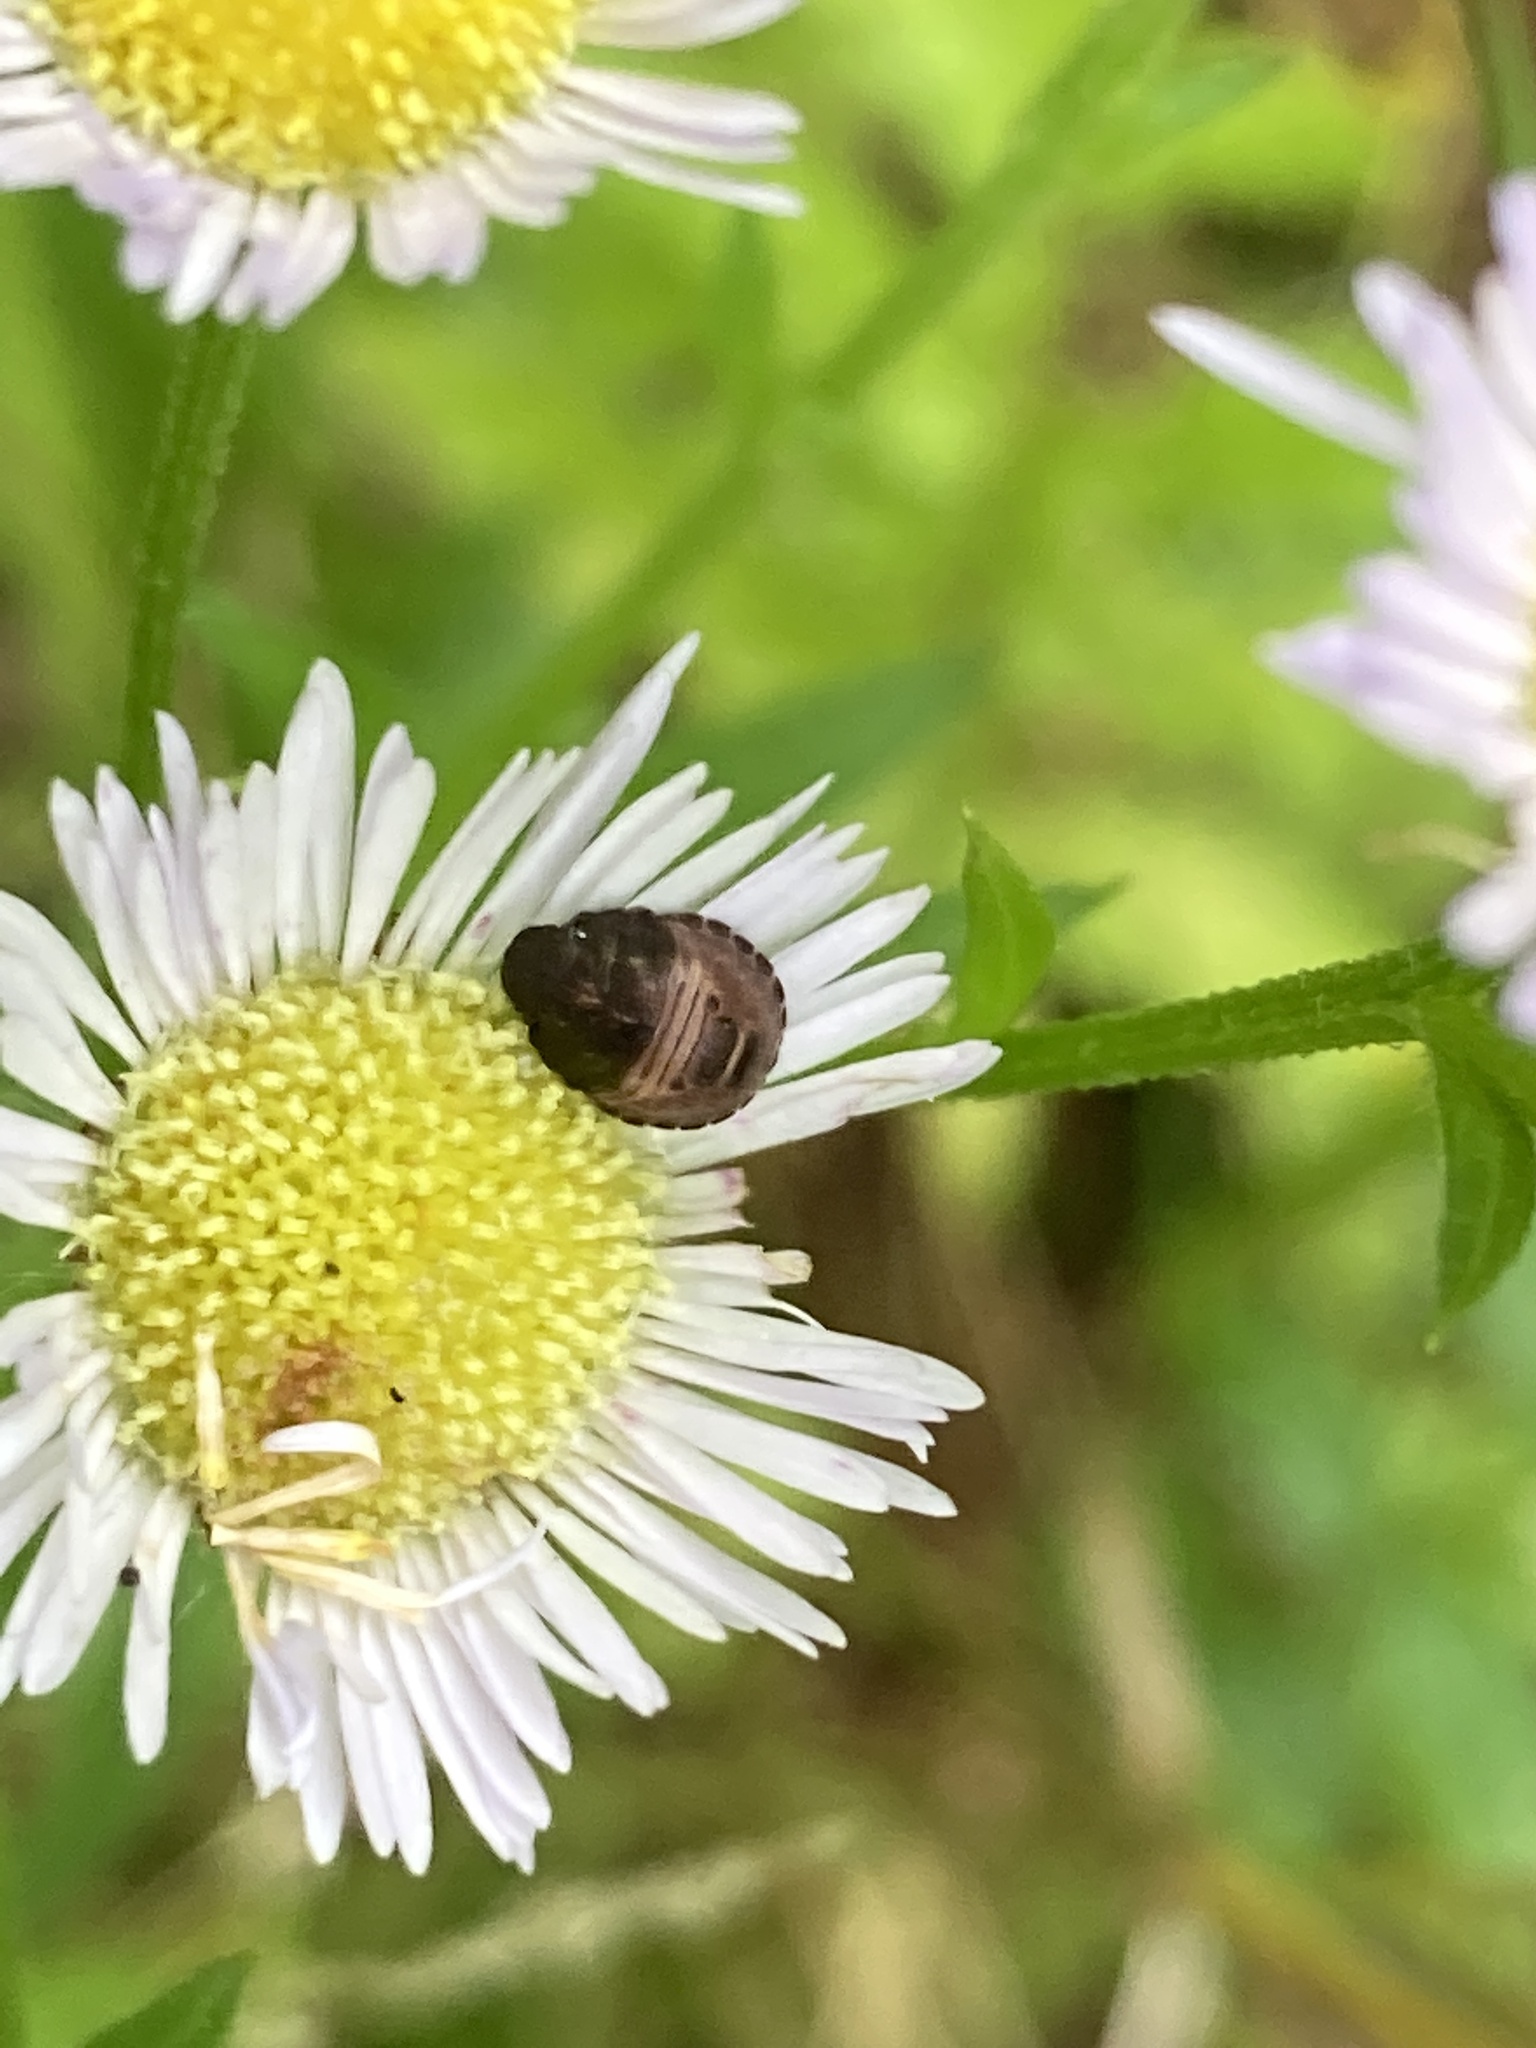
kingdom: Animalia
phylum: Arthropoda
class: Insecta
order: Hemiptera
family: Scutelleridae
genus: Eurygaster
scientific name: Eurygaster testudinaria
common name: Tortoise bug
